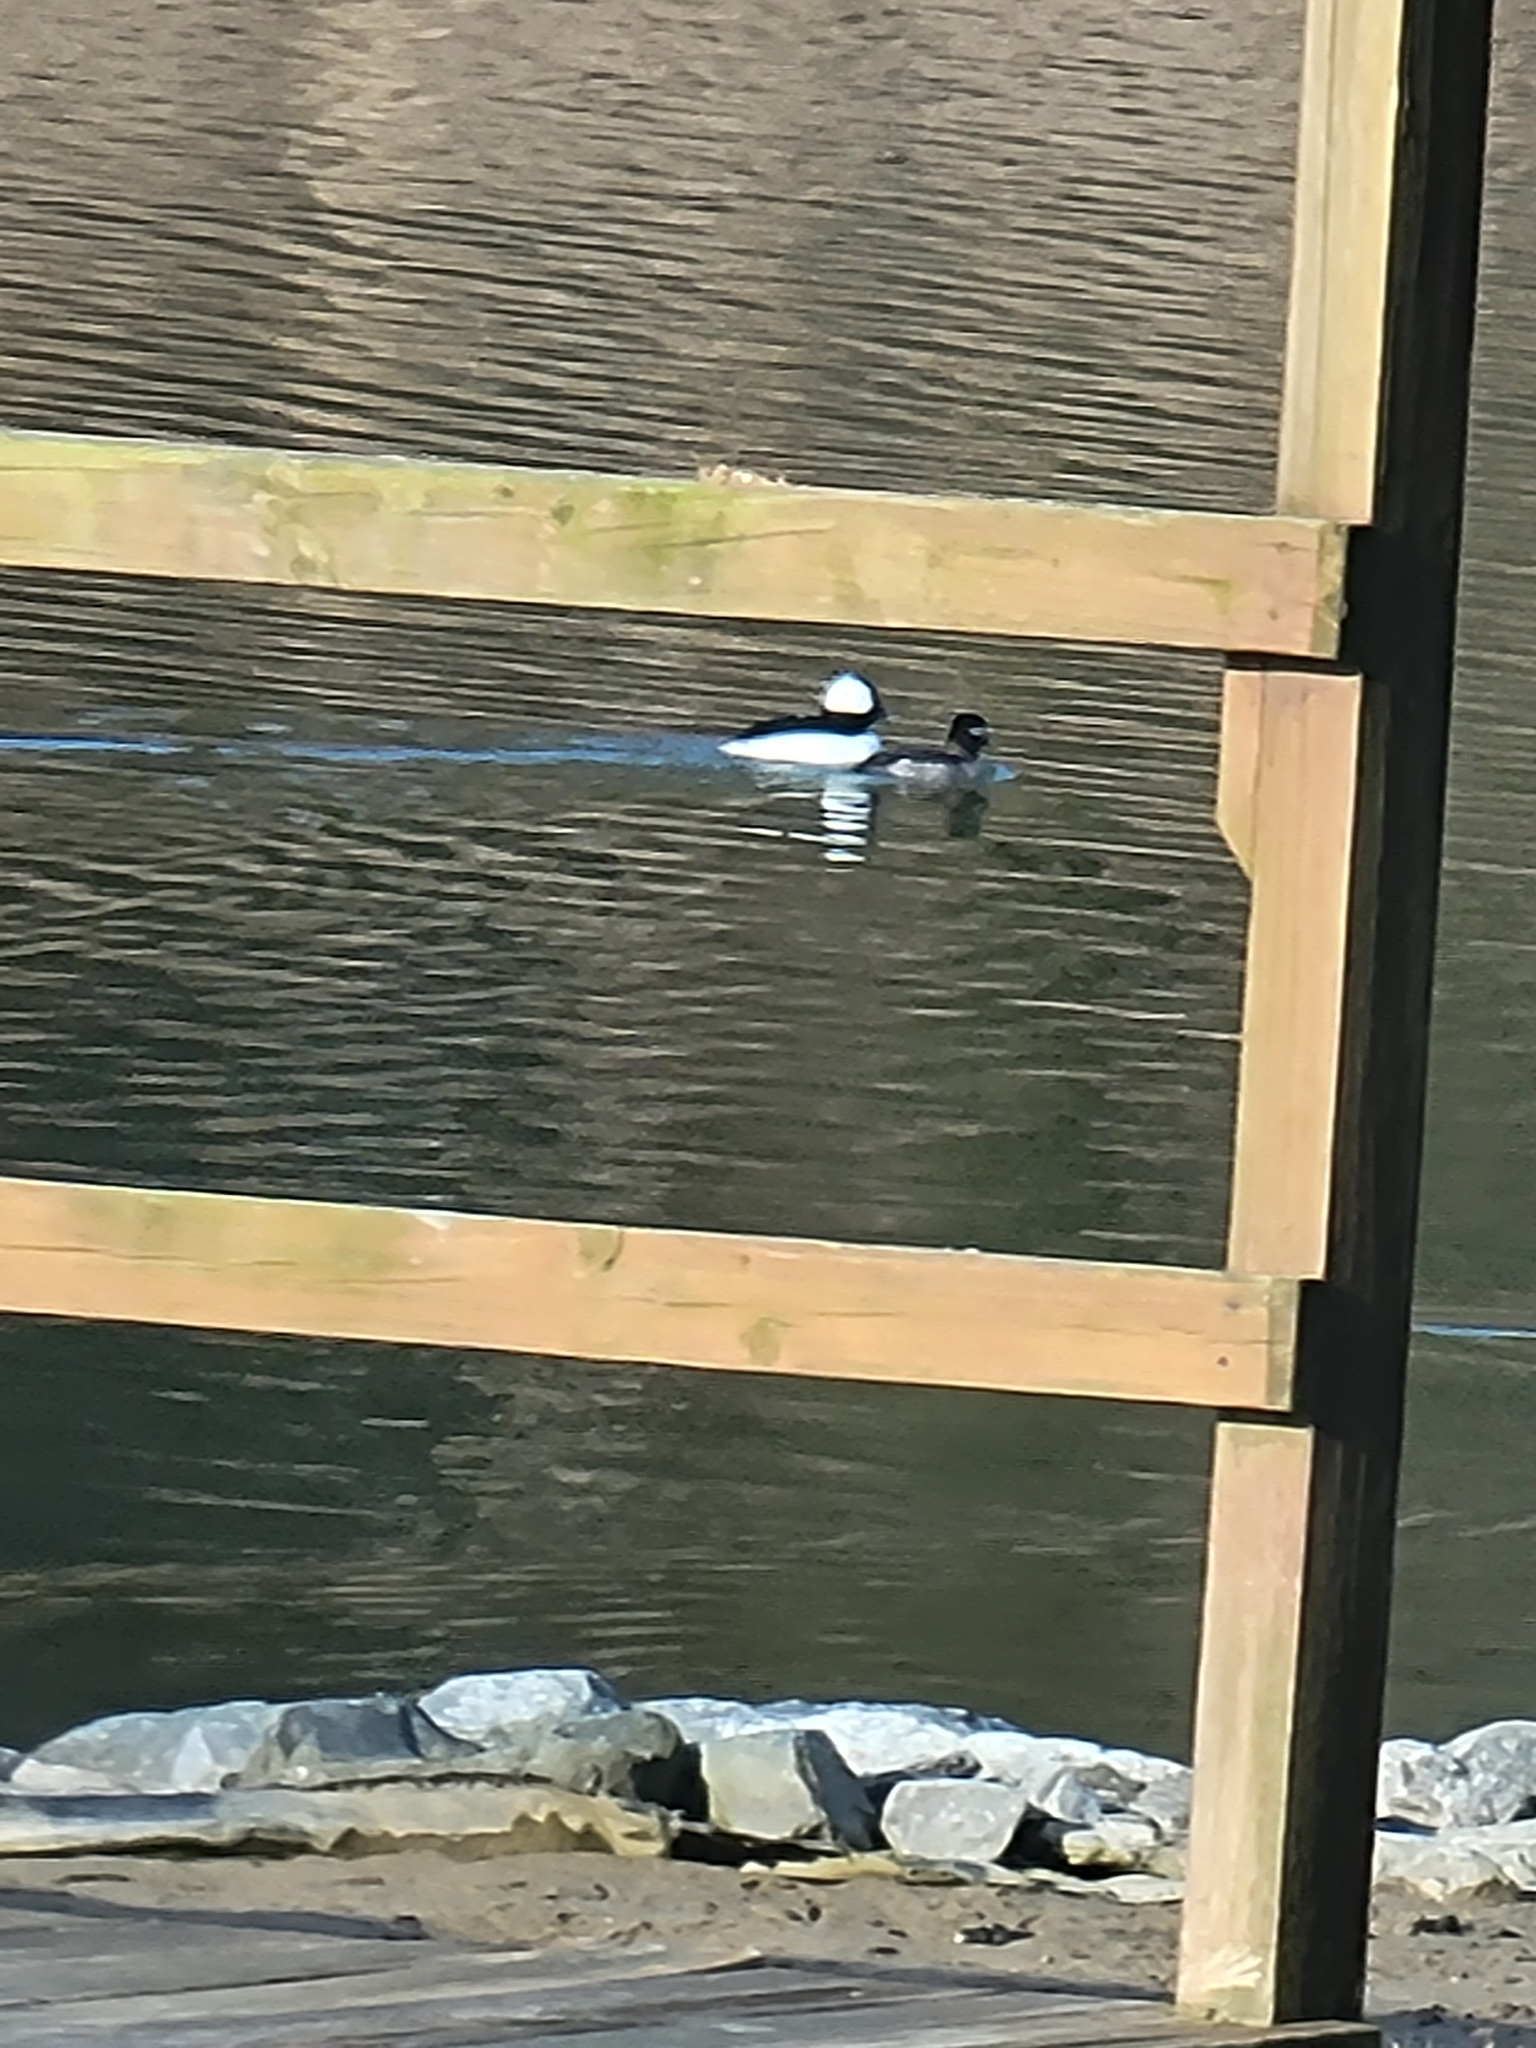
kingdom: Animalia
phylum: Chordata
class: Aves
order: Anseriformes
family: Anatidae
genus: Bucephala
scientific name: Bucephala albeola
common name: Bufflehead
